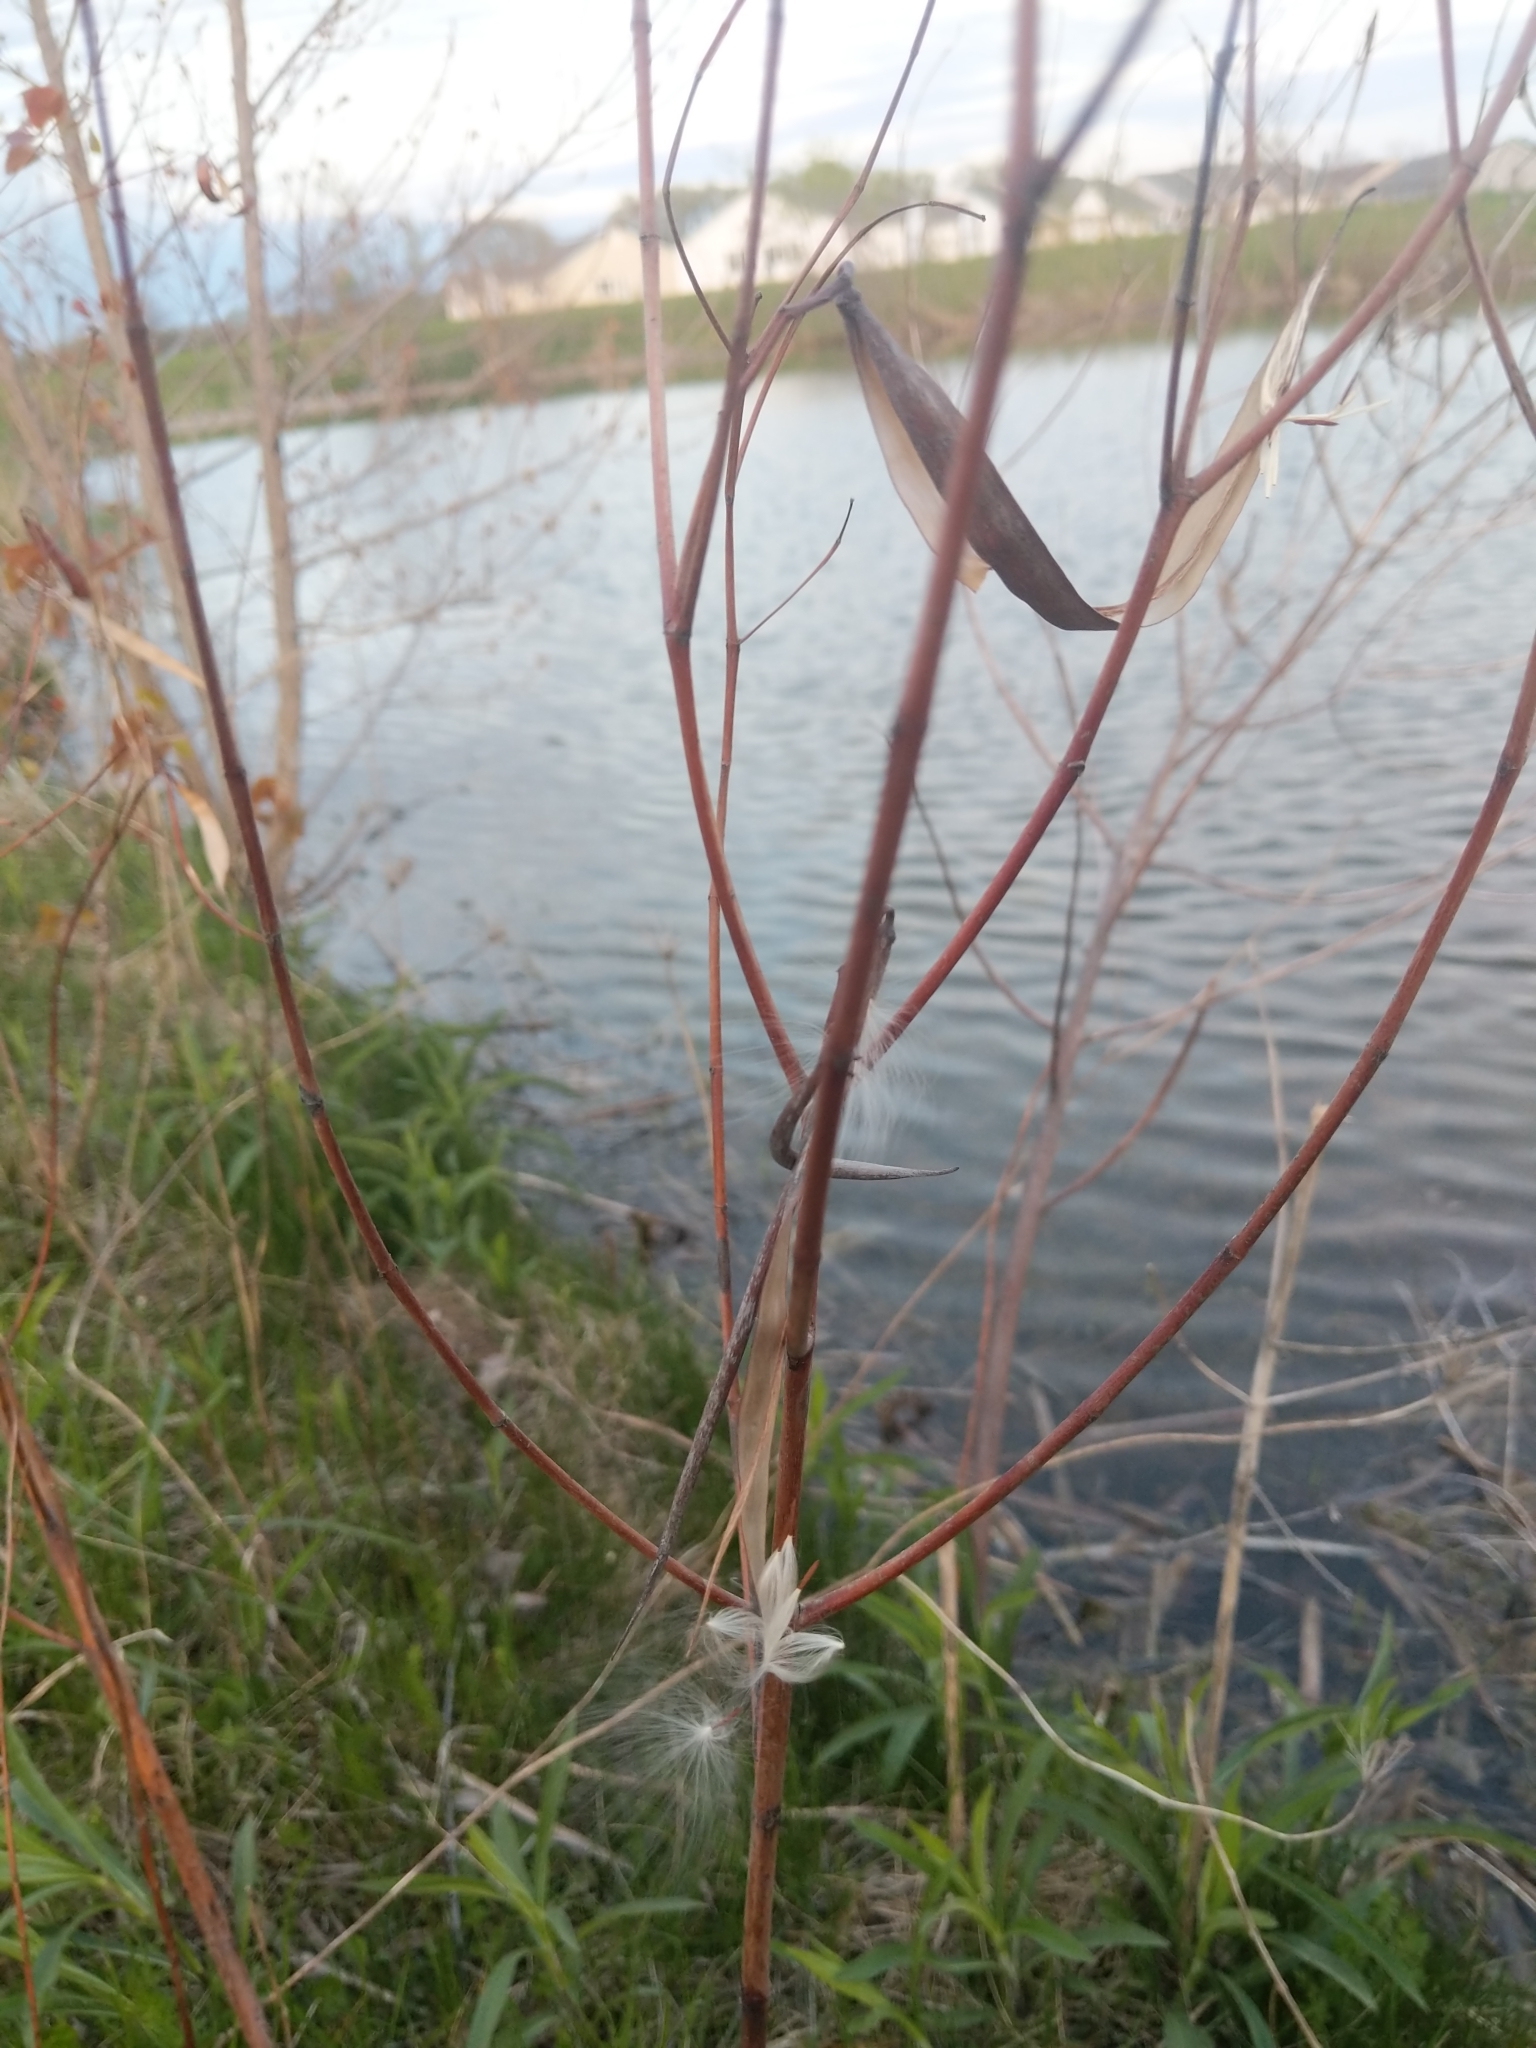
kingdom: Plantae
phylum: Tracheophyta
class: Magnoliopsida
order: Gentianales
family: Apocynaceae
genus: Apocynum
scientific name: Apocynum cannabinum
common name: Hemp dogbane
